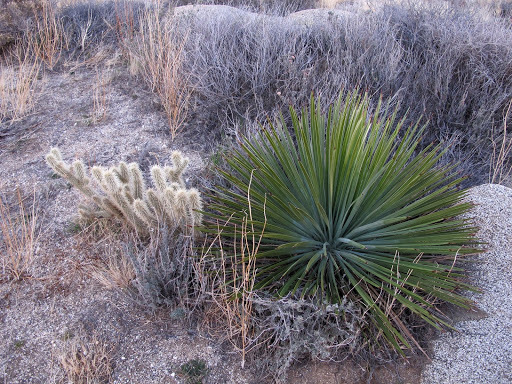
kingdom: Plantae
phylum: Tracheophyta
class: Liliopsida
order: Asparagales
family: Asparagaceae
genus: Hesperoyucca
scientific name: Hesperoyucca whipplei
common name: Our lord's-candle
